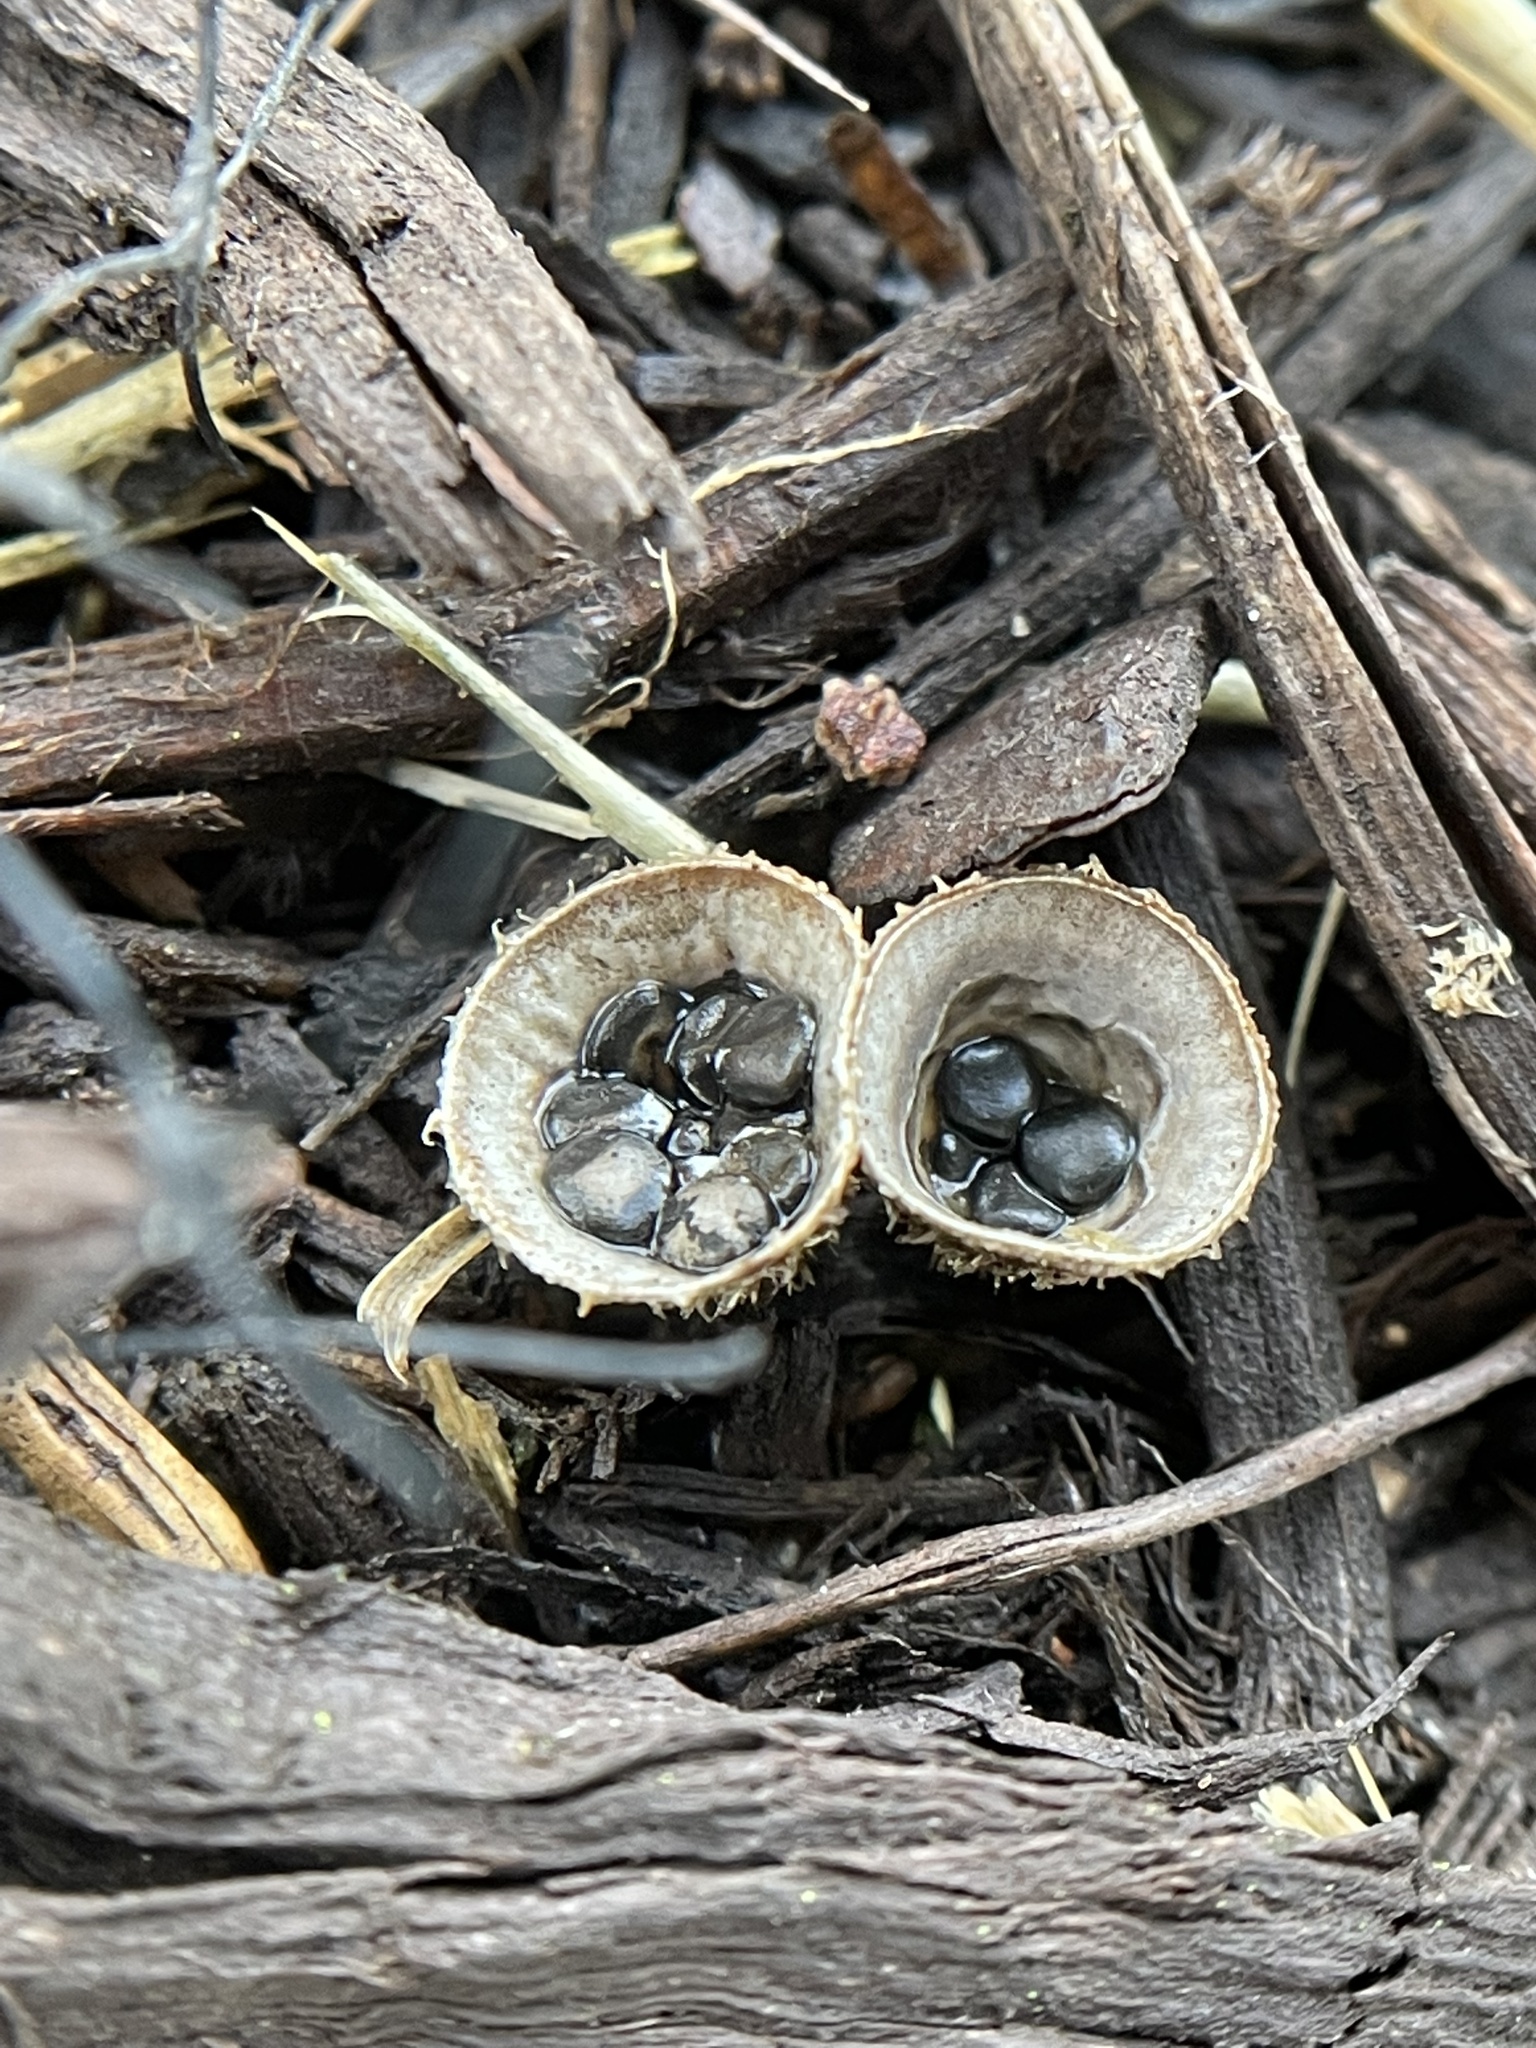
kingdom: Fungi
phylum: Basidiomycota
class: Agaricomycetes
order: Agaricales
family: Agaricaceae
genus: Cyathus
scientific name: Cyathus stercoreus
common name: Dung bird's nest
